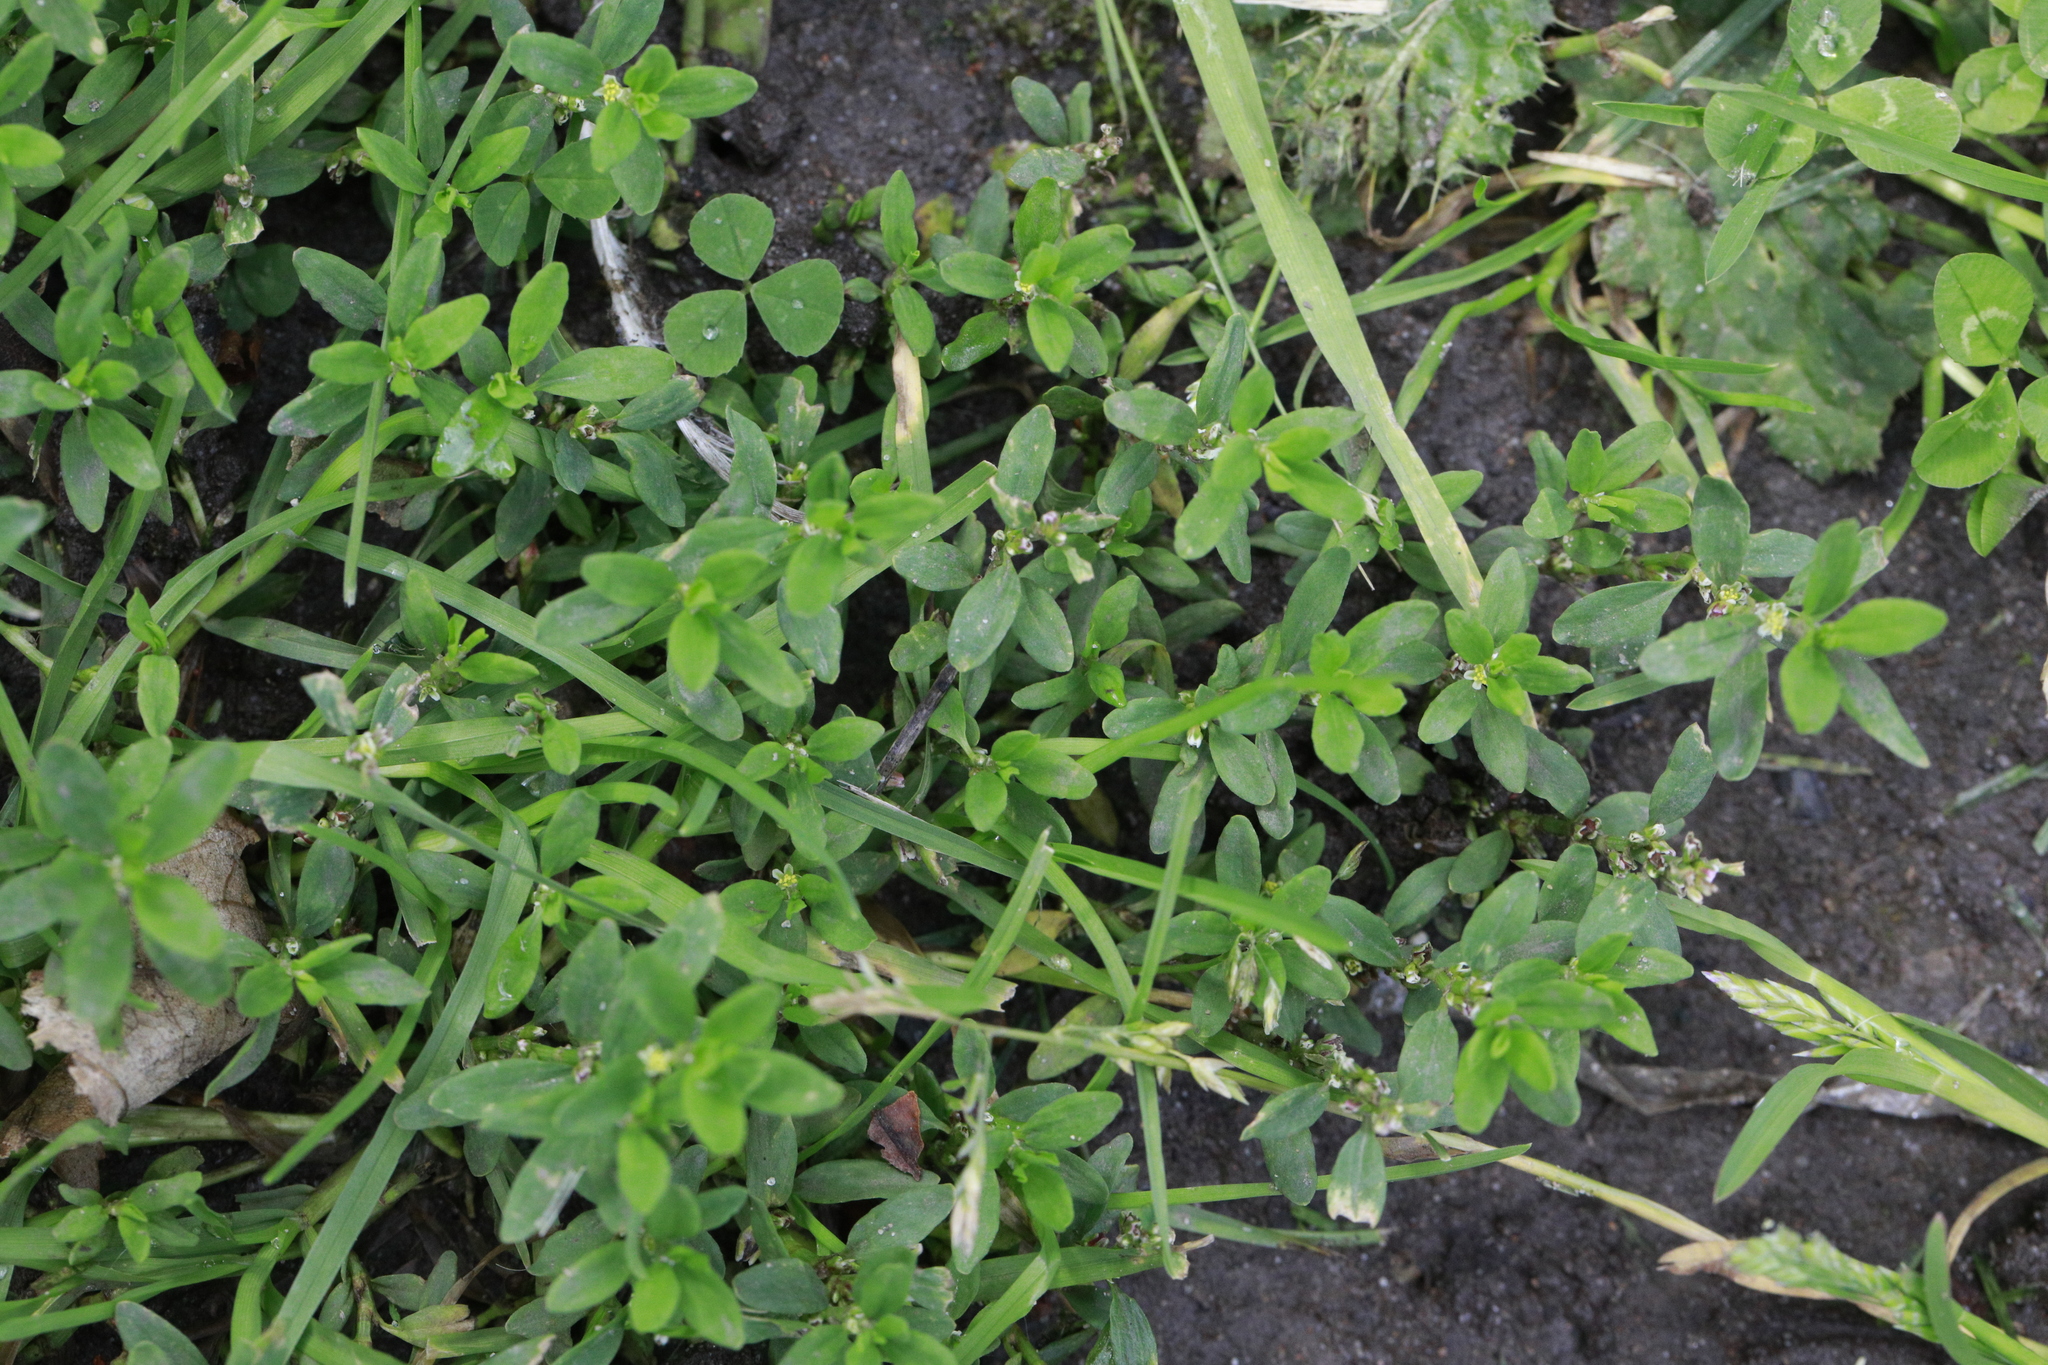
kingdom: Plantae
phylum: Tracheophyta
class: Magnoliopsida
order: Caryophyllales
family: Polygonaceae
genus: Polygonum
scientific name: Polygonum aviculare
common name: Prostrate knotweed
